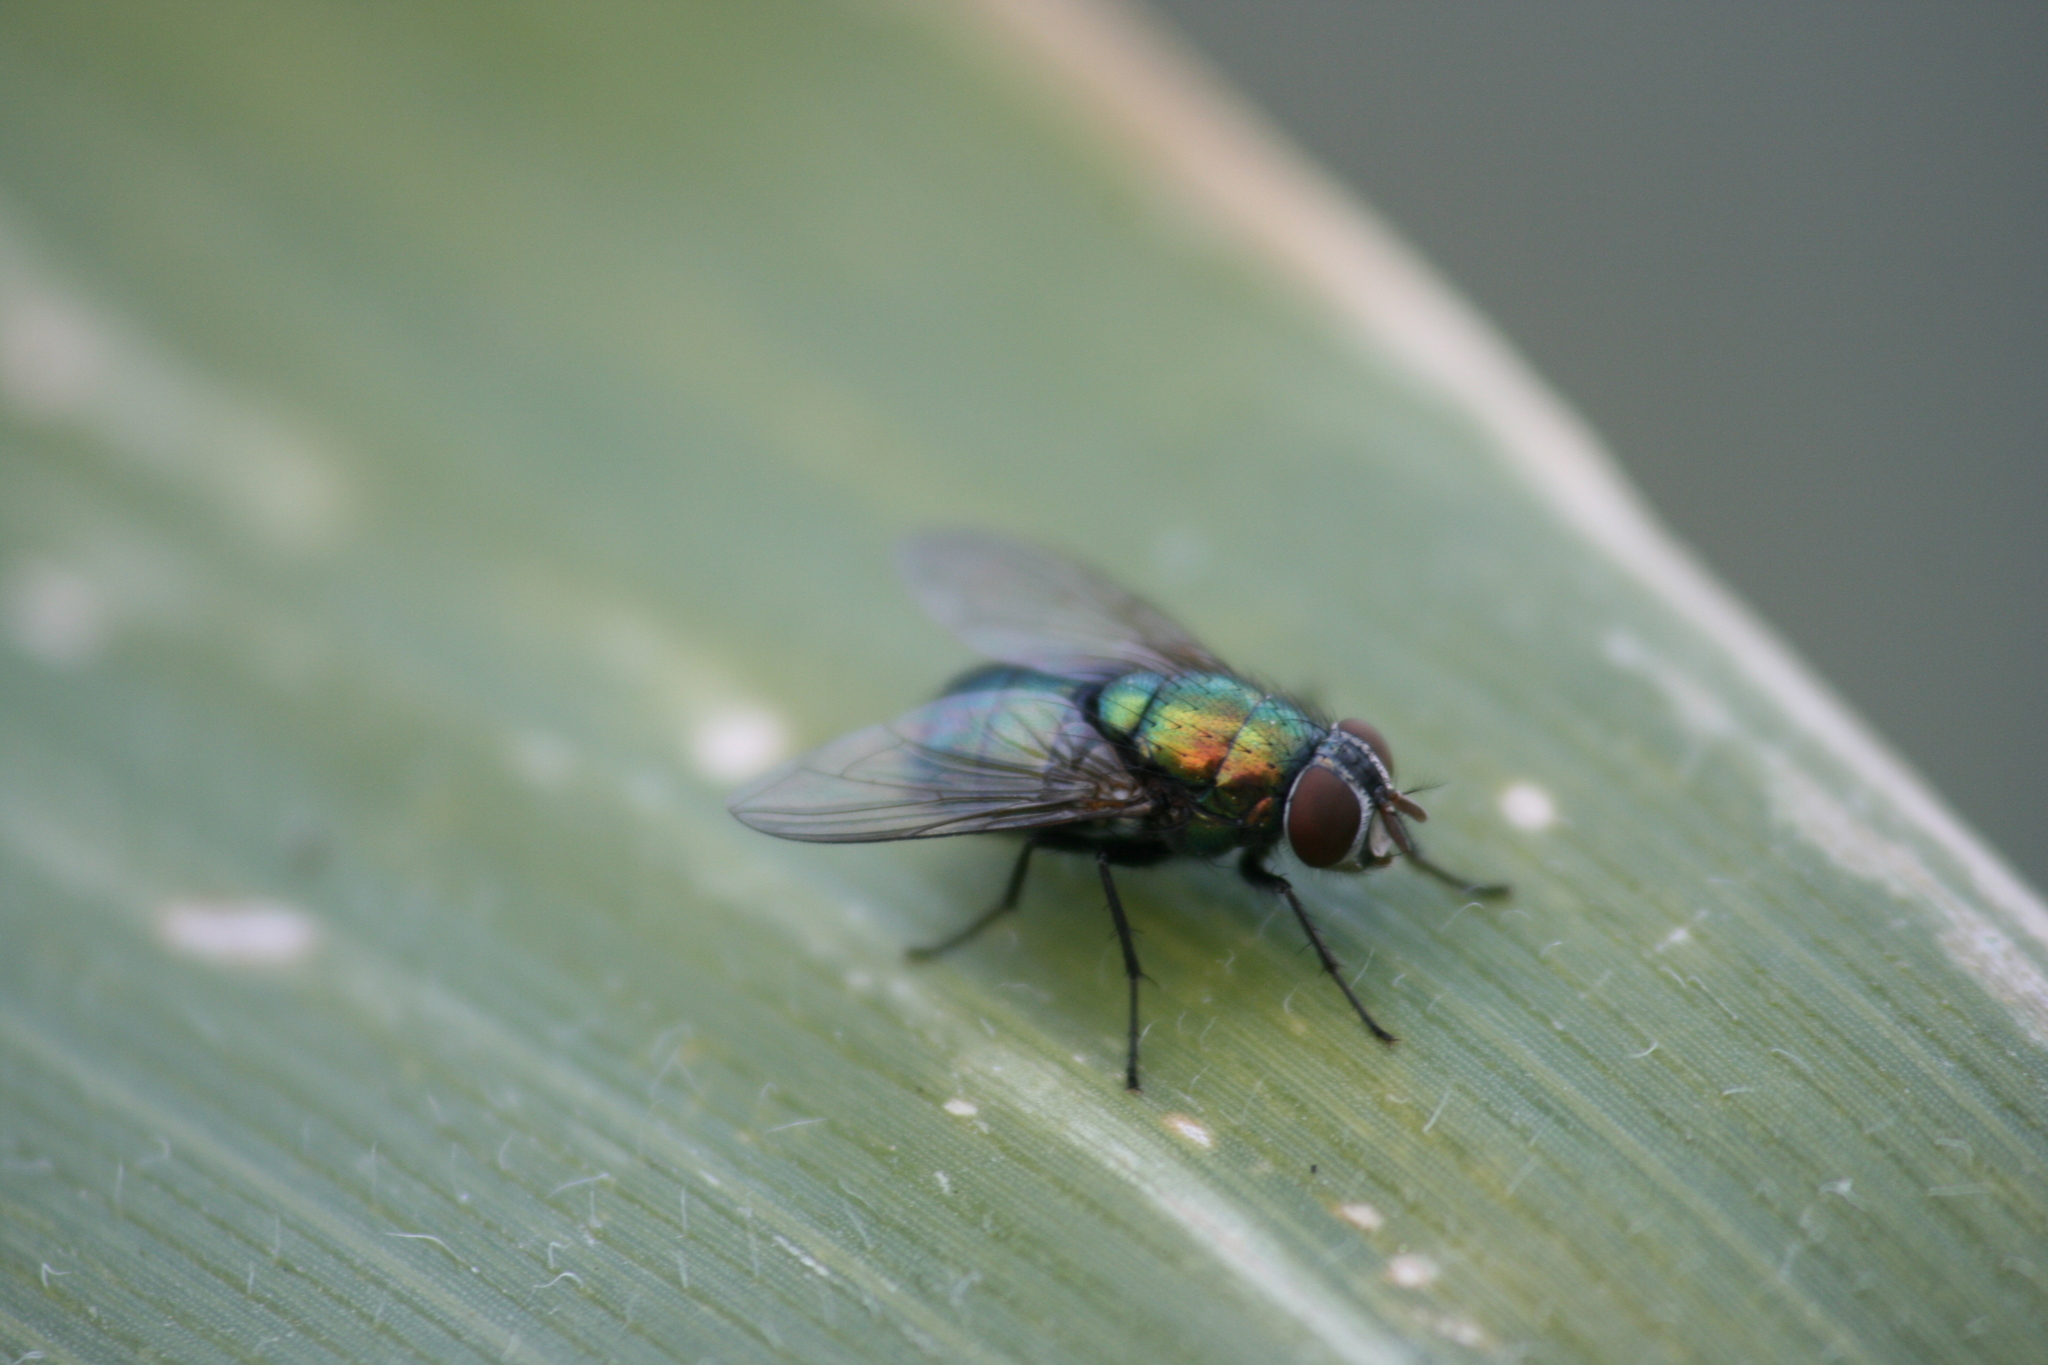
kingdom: Animalia
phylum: Arthropoda
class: Insecta
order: Diptera
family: Calliphoridae
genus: Lucilia
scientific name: Lucilia caesar
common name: Blow fly
